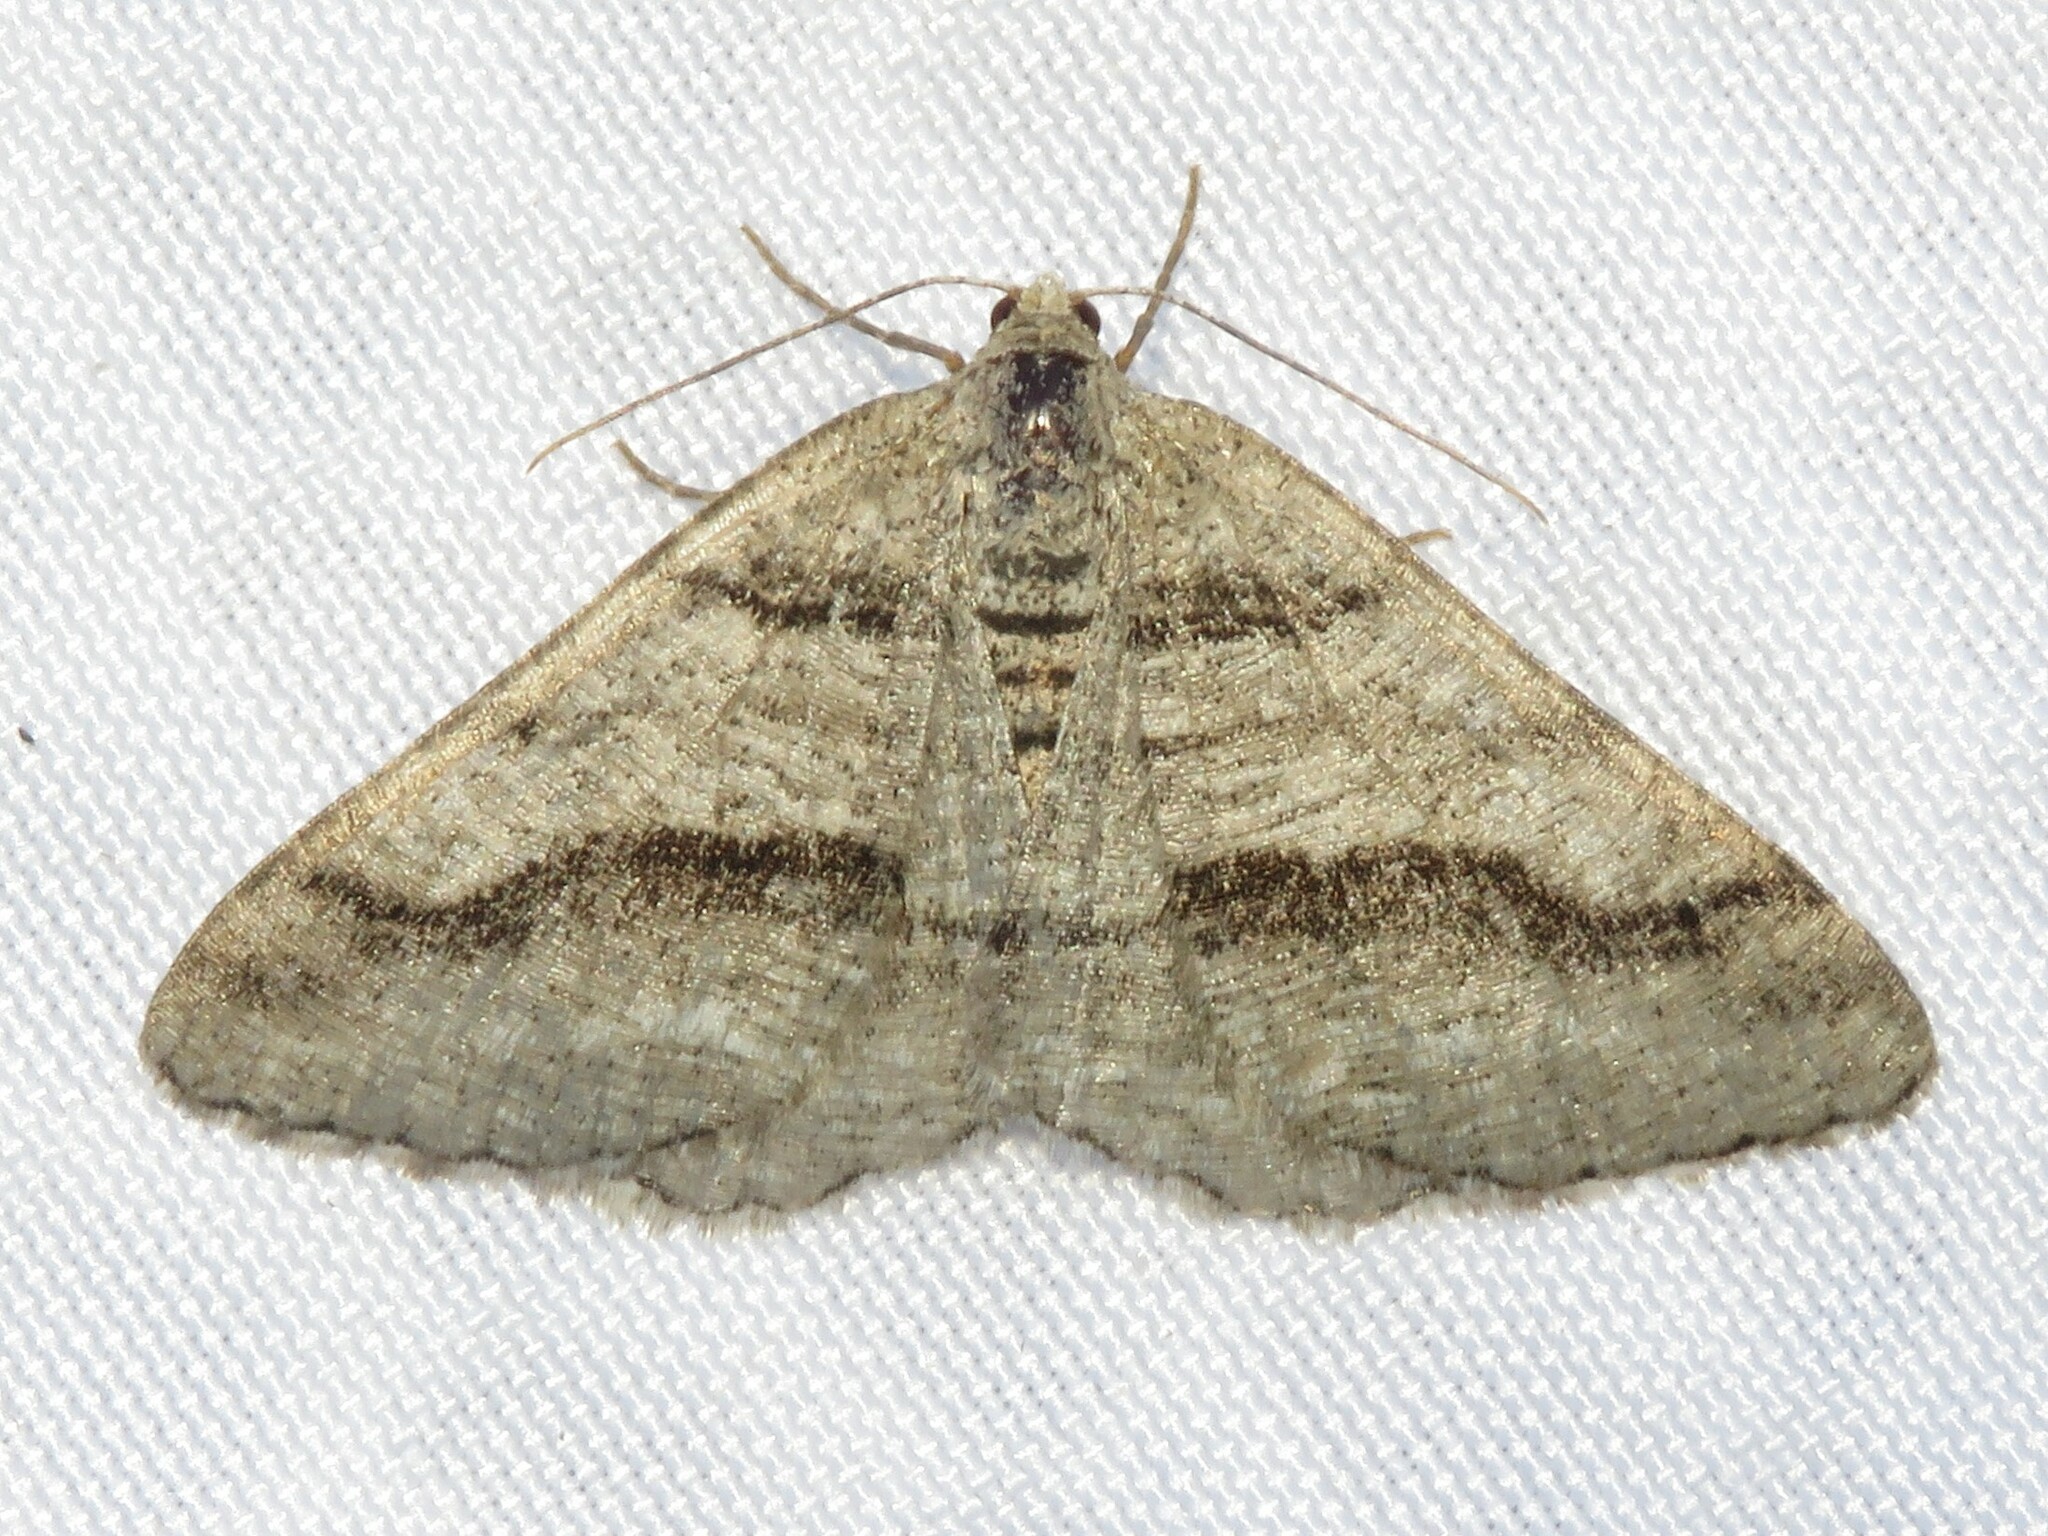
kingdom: Animalia
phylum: Arthropoda
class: Insecta
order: Lepidoptera
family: Geometridae
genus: Digrammia
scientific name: Digrammia continuata
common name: Curve-lined angle
